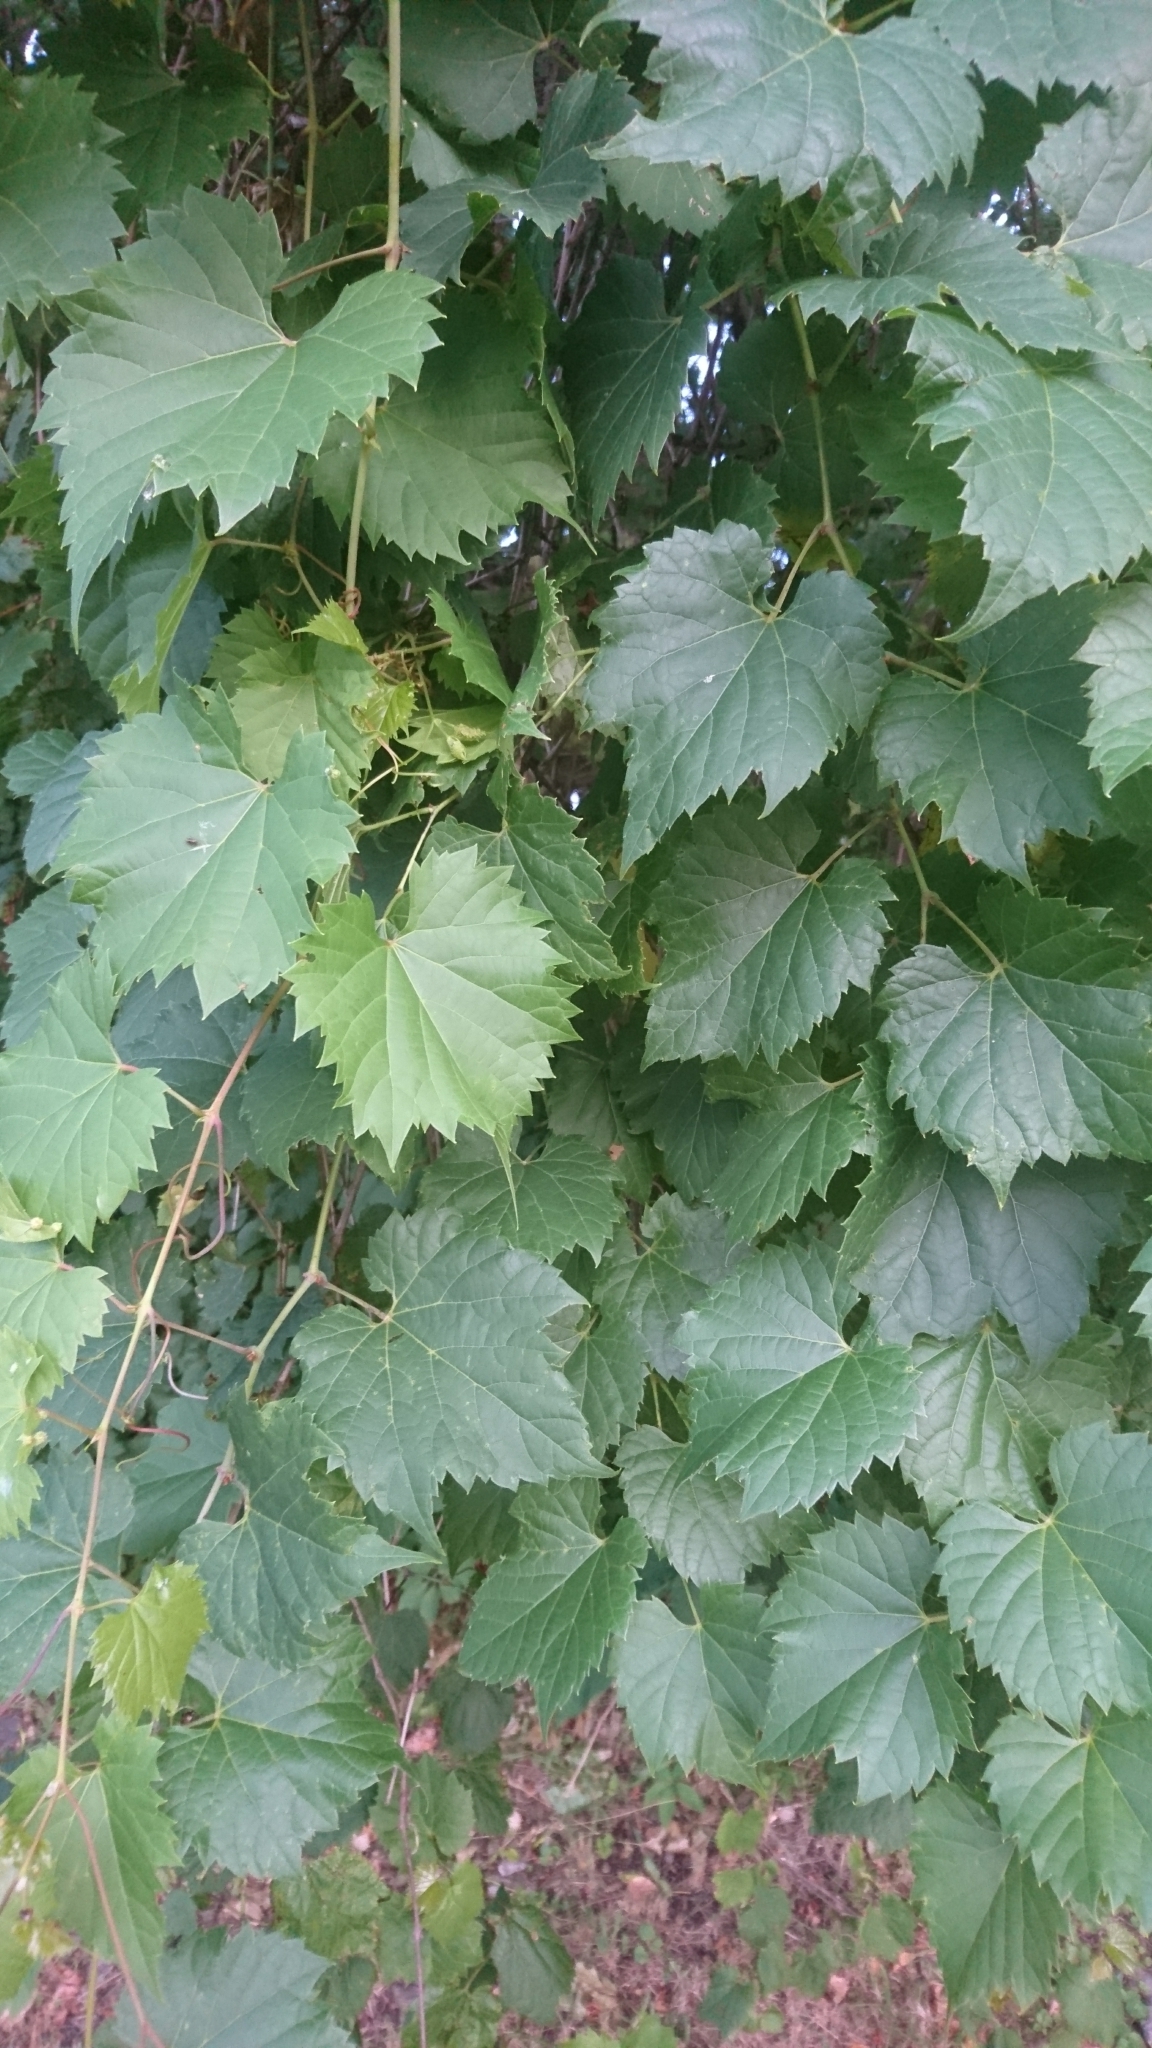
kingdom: Plantae
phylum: Tracheophyta
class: Magnoliopsida
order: Vitales
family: Vitaceae
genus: Vitis
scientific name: Vitis riparia
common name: Frost grape
